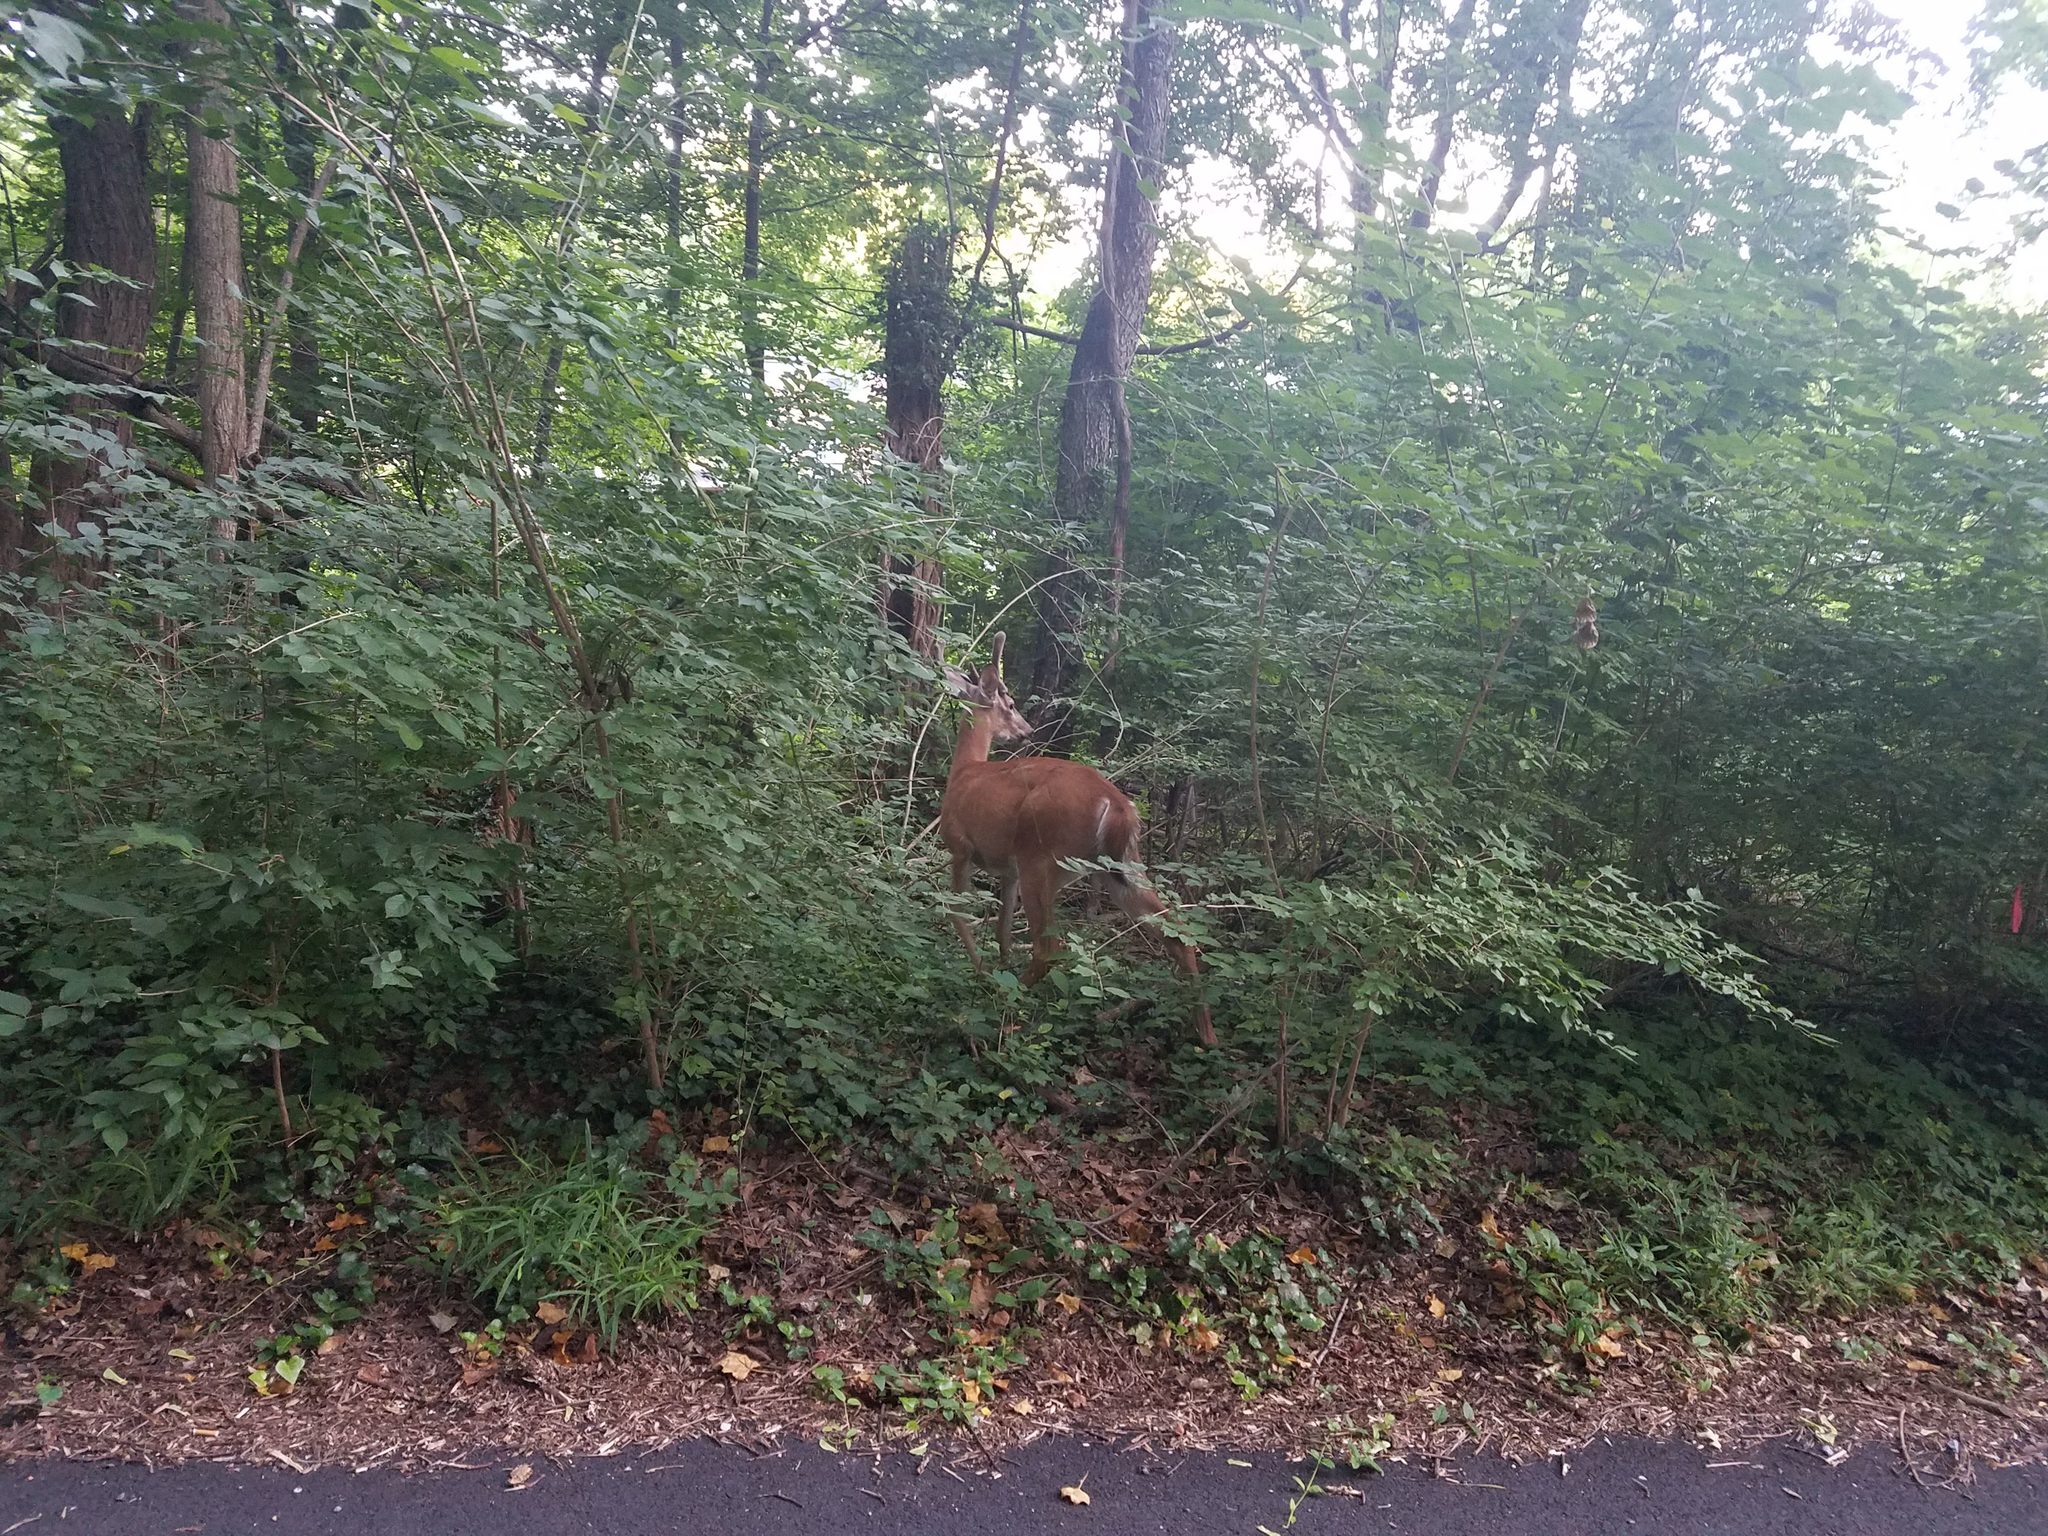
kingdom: Animalia
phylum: Chordata
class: Mammalia
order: Artiodactyla
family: Cervidae
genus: Odocoileus
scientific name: Odocoileus virginianus
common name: White-tailed deer
